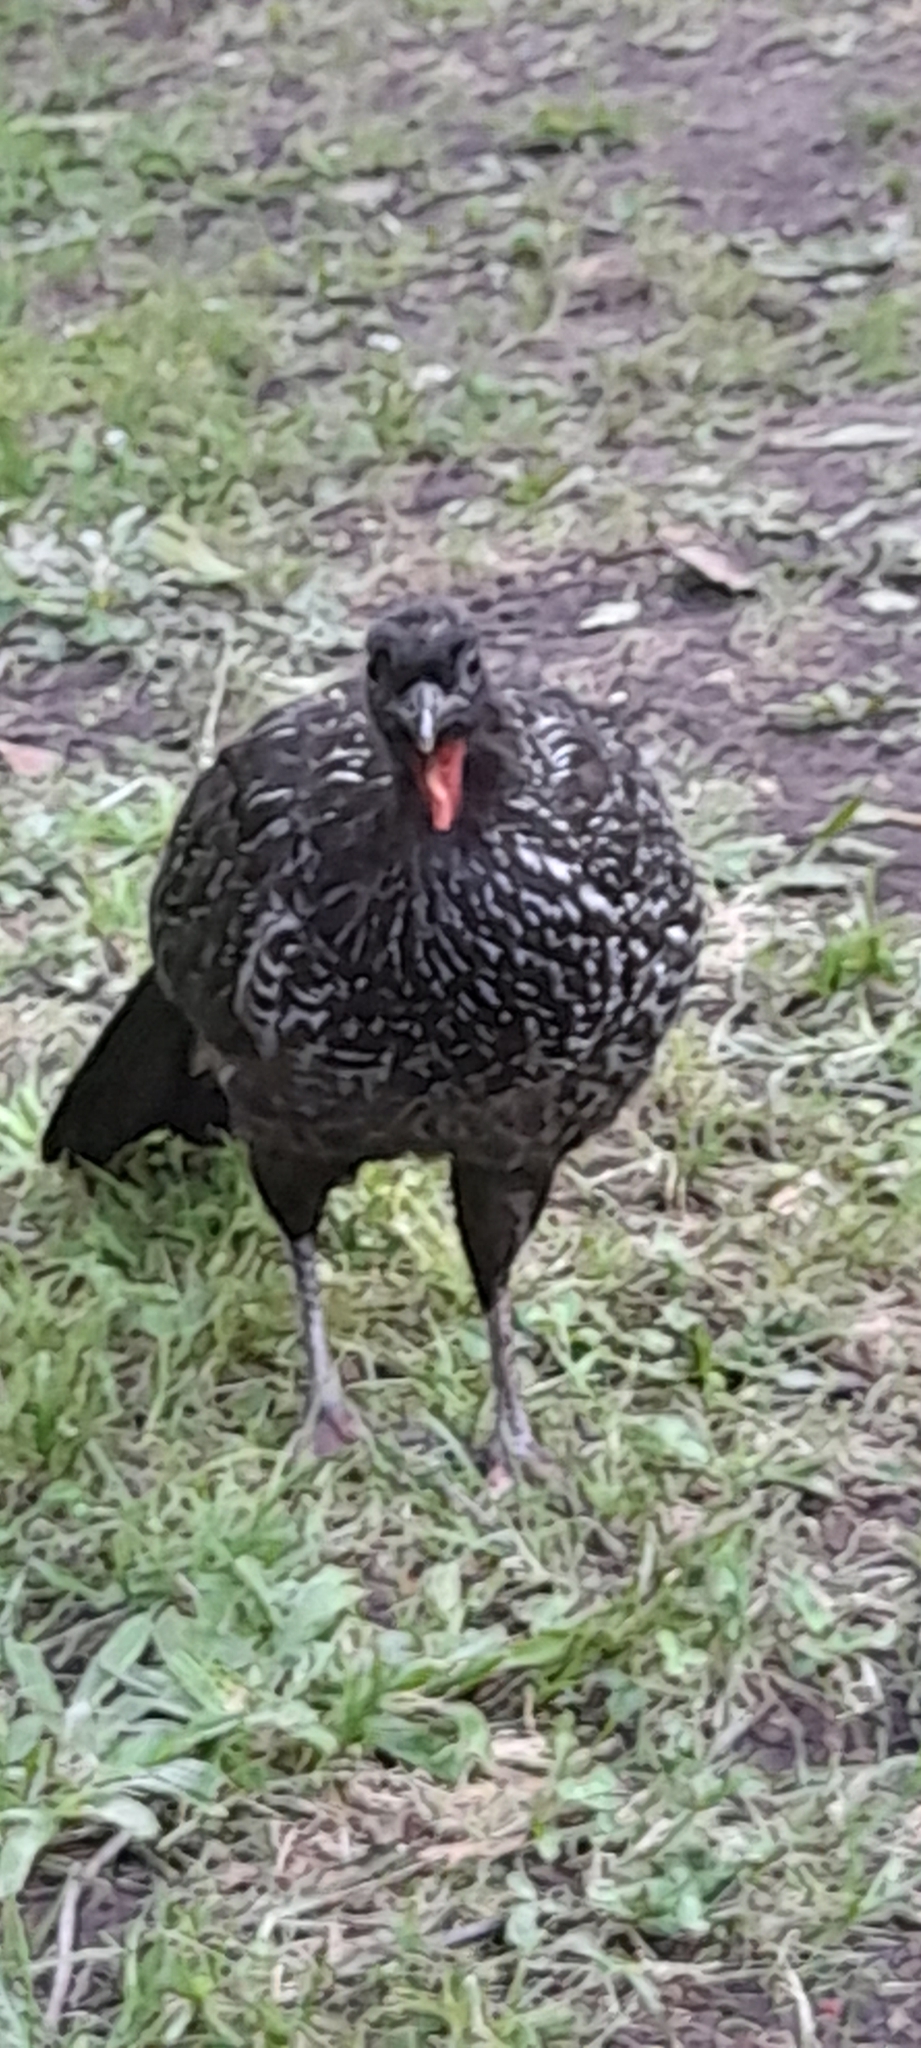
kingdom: Animalia
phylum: Chordata
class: Aves
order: Galliformes
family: Cracidae
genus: Penelope
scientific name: Penelope obscura
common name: Dusky-legged guan
